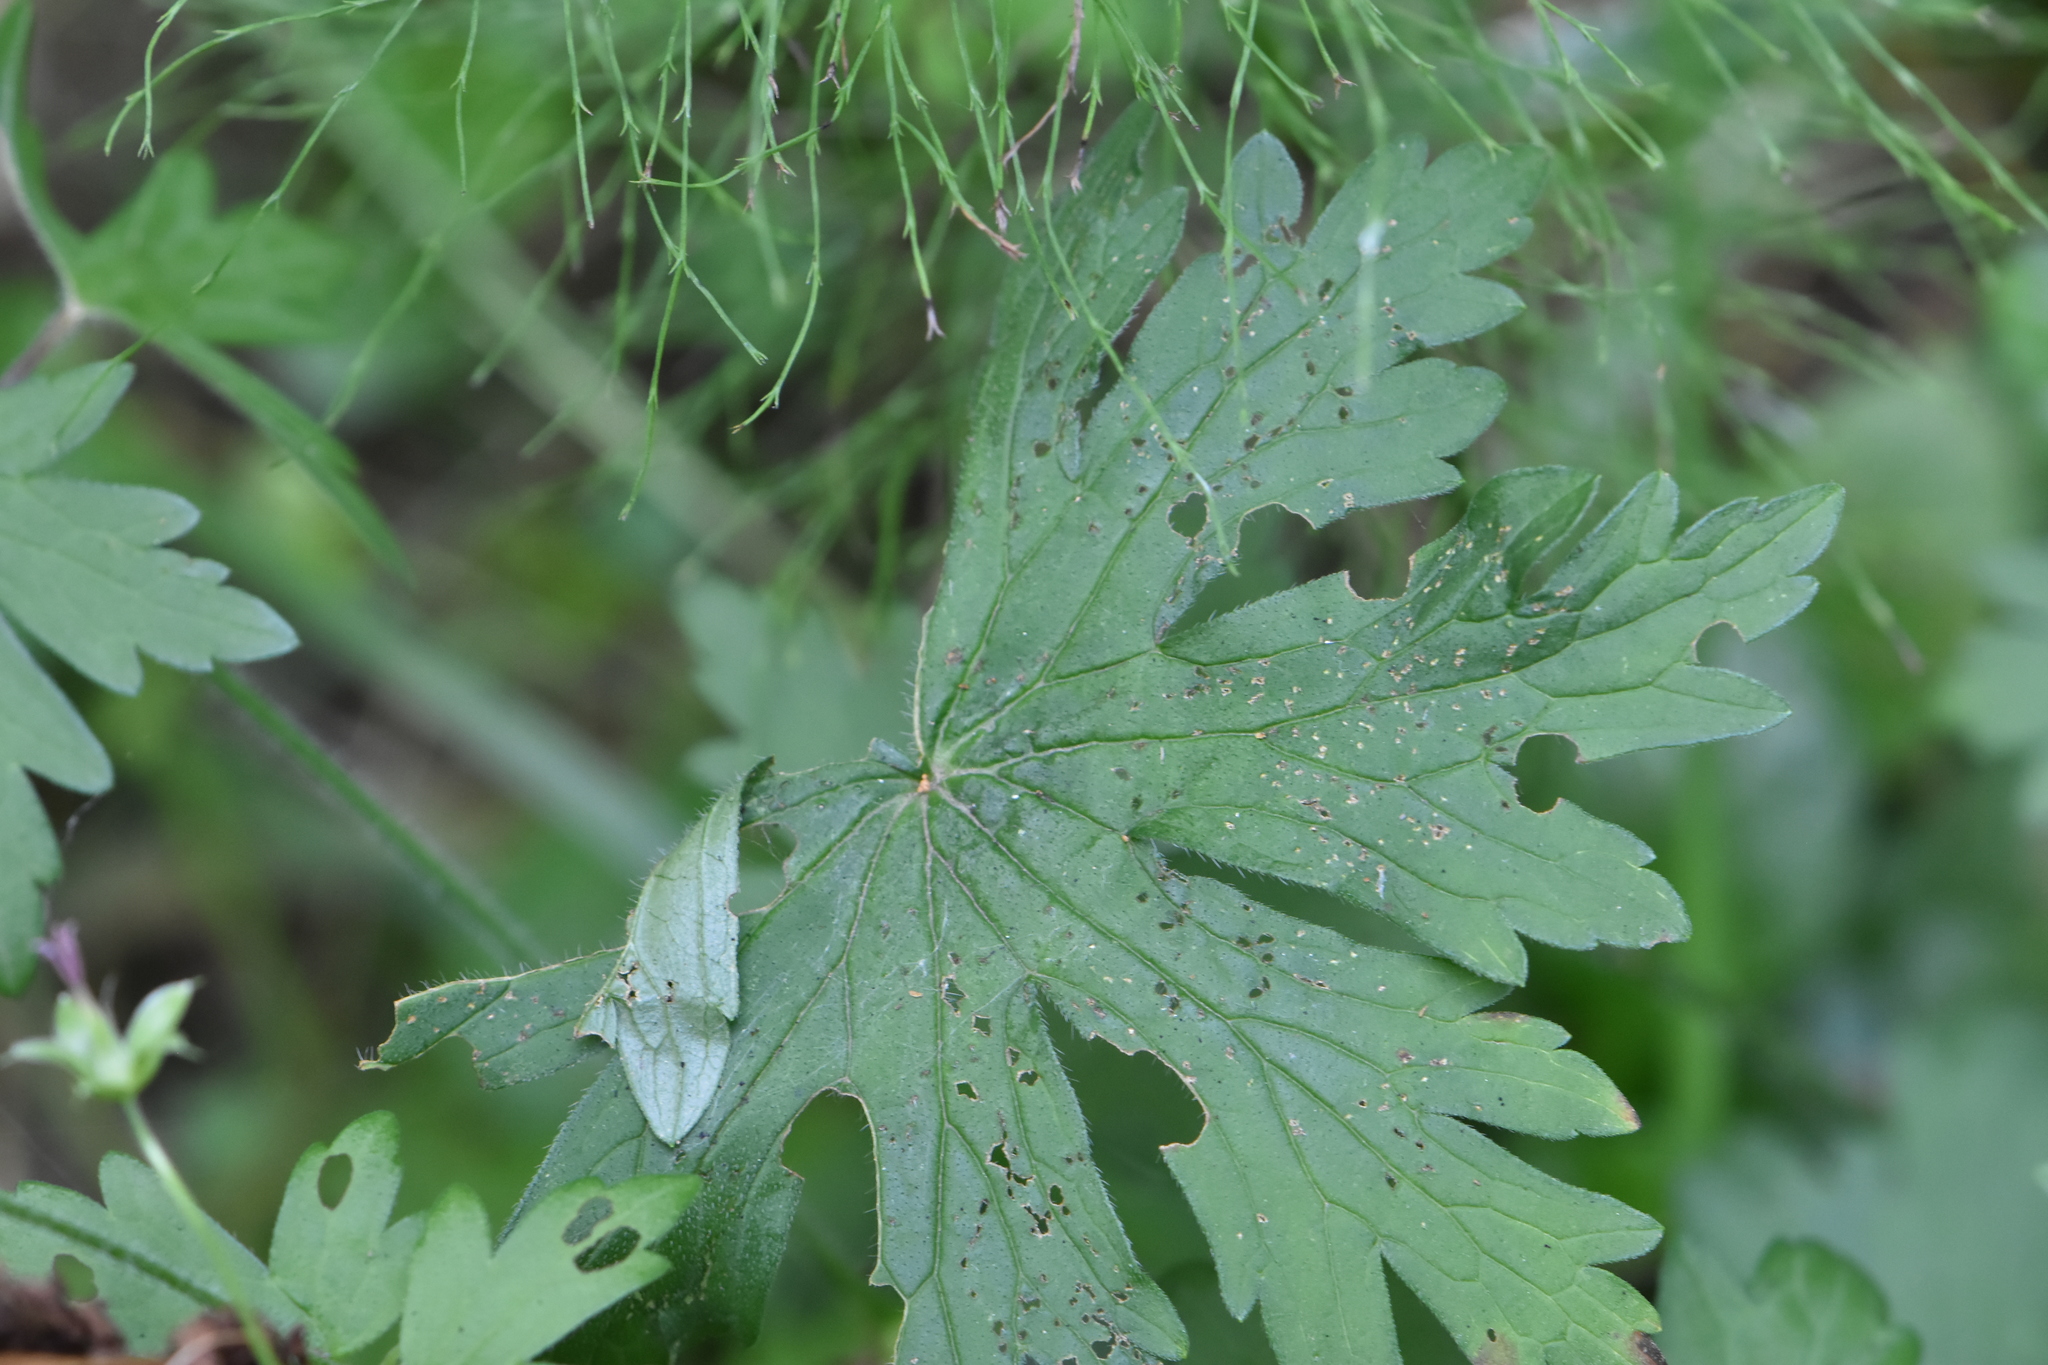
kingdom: Plantae
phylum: Tracheophyta
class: Magnoliopsida
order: Geraniales
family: Geraniaceae
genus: Geranium
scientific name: Geranium palustre
